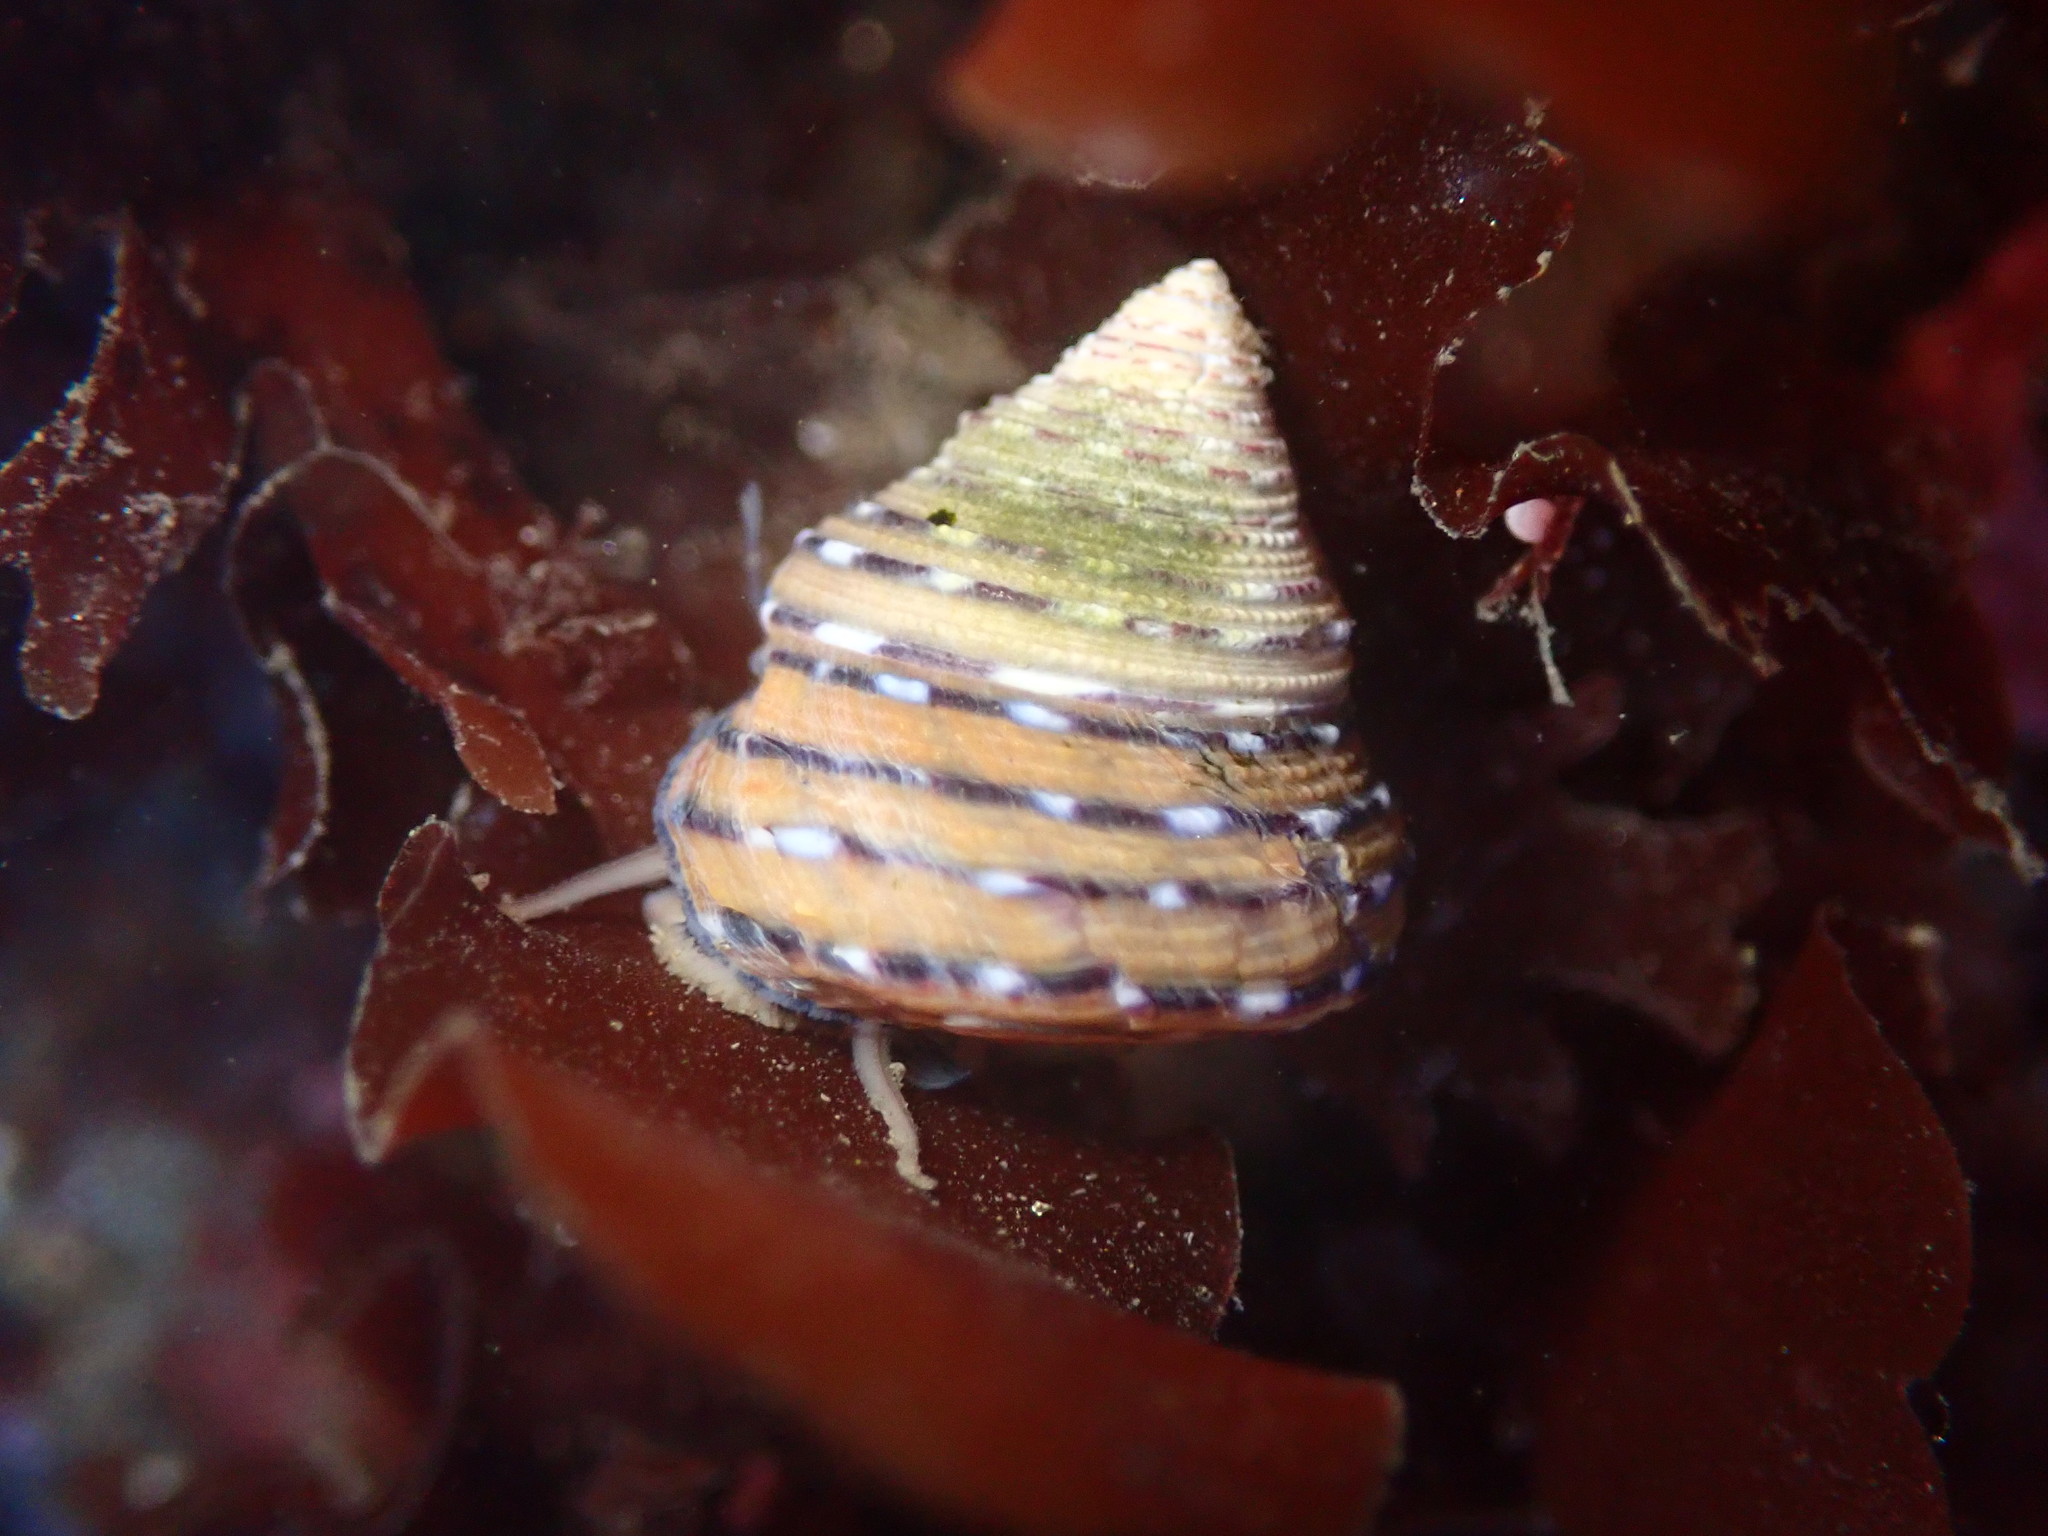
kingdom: Animalia
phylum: Mollusca
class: Gastropoda
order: Trochida
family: Calliostomatidae
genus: Calliostoma
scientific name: Calliostoma tricolor
